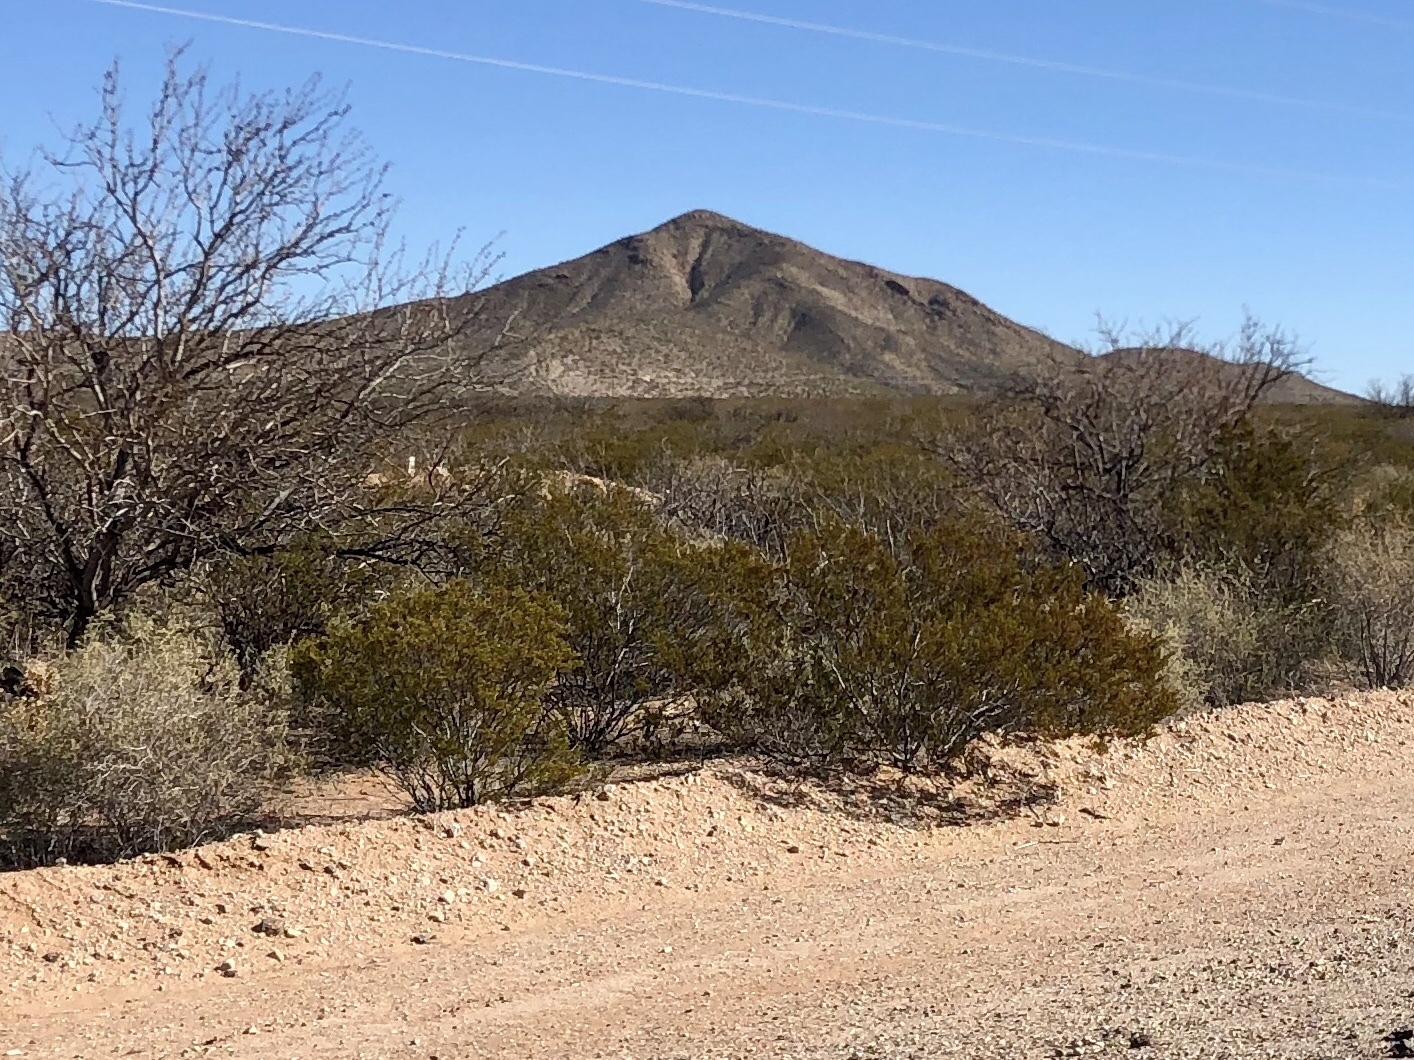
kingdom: Plantae
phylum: Tracheophyta
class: Magnoliopsida
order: Zygophyllales
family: Zygophyllaceae
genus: Larrea
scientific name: Larrea tridentata
